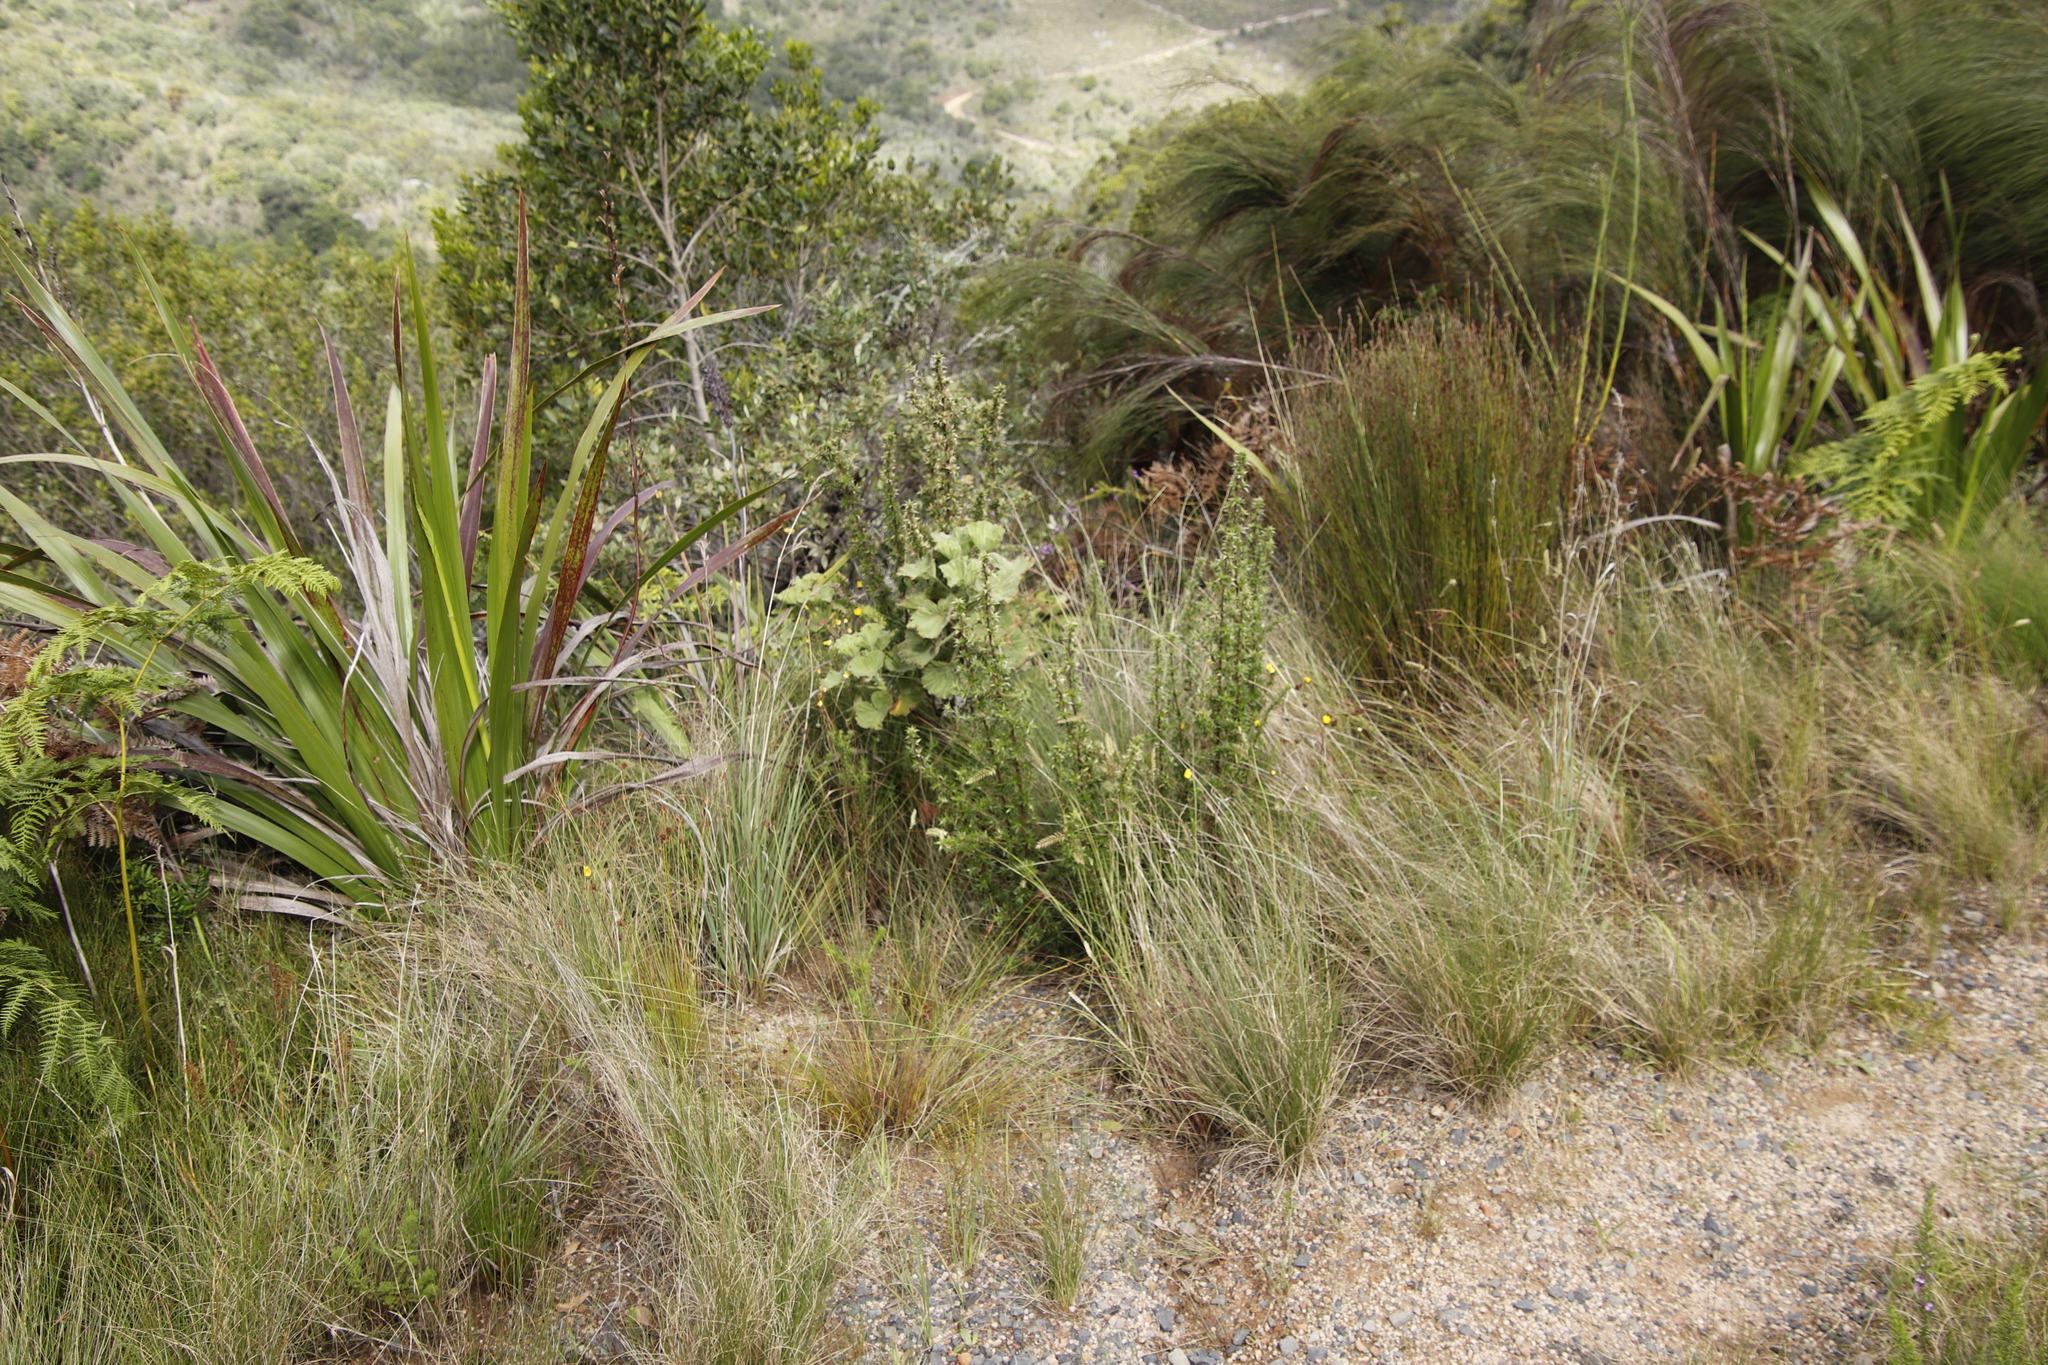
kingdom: Plantae
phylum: Tracheophyta
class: Magnoliopsida
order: Rosales
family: Rosaceae
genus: Cliffortia
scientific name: Cliffortia ruscifolia
